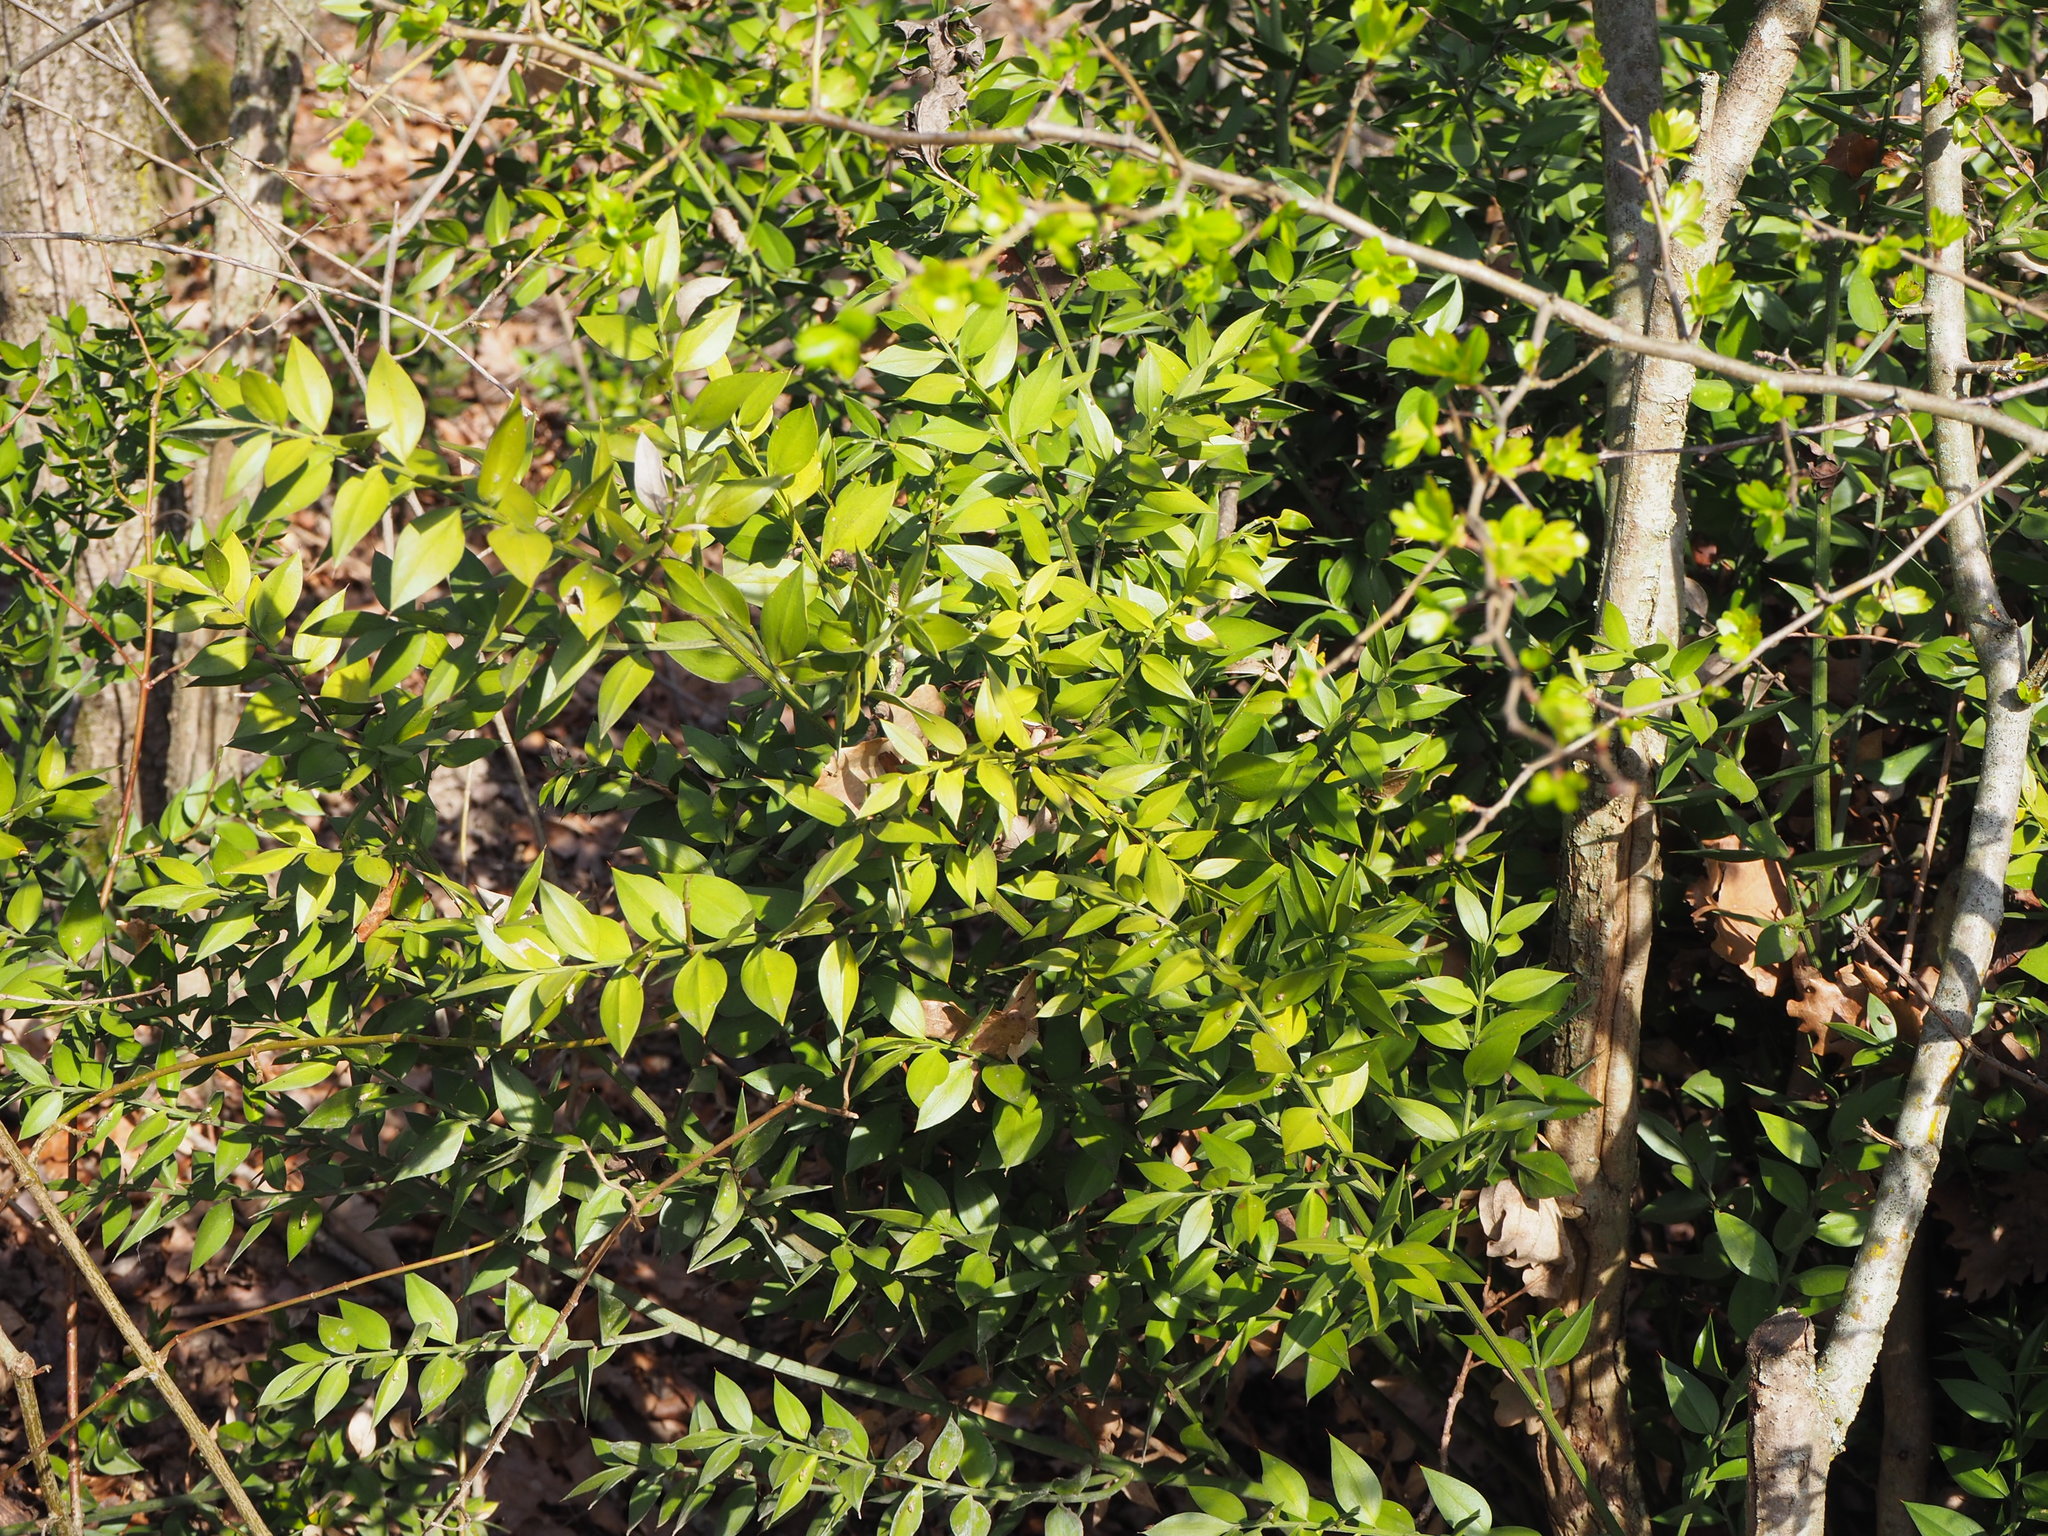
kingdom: Plantae
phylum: Tracheophyta
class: Liliopsida
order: Asparagales
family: Asparagaceae
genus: Ruscus
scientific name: Ruscus aculeatus
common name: Butcher's-broom
